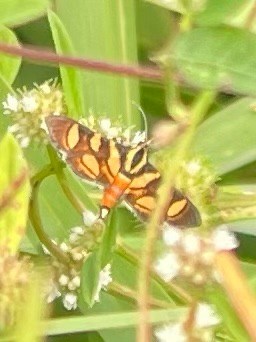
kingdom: Animalia
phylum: Arthropoda
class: Insecta
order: Lepidoptera
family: Crambidae
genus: Syngamia
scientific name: Syngamia florella
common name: Orange-spotted flower moth
